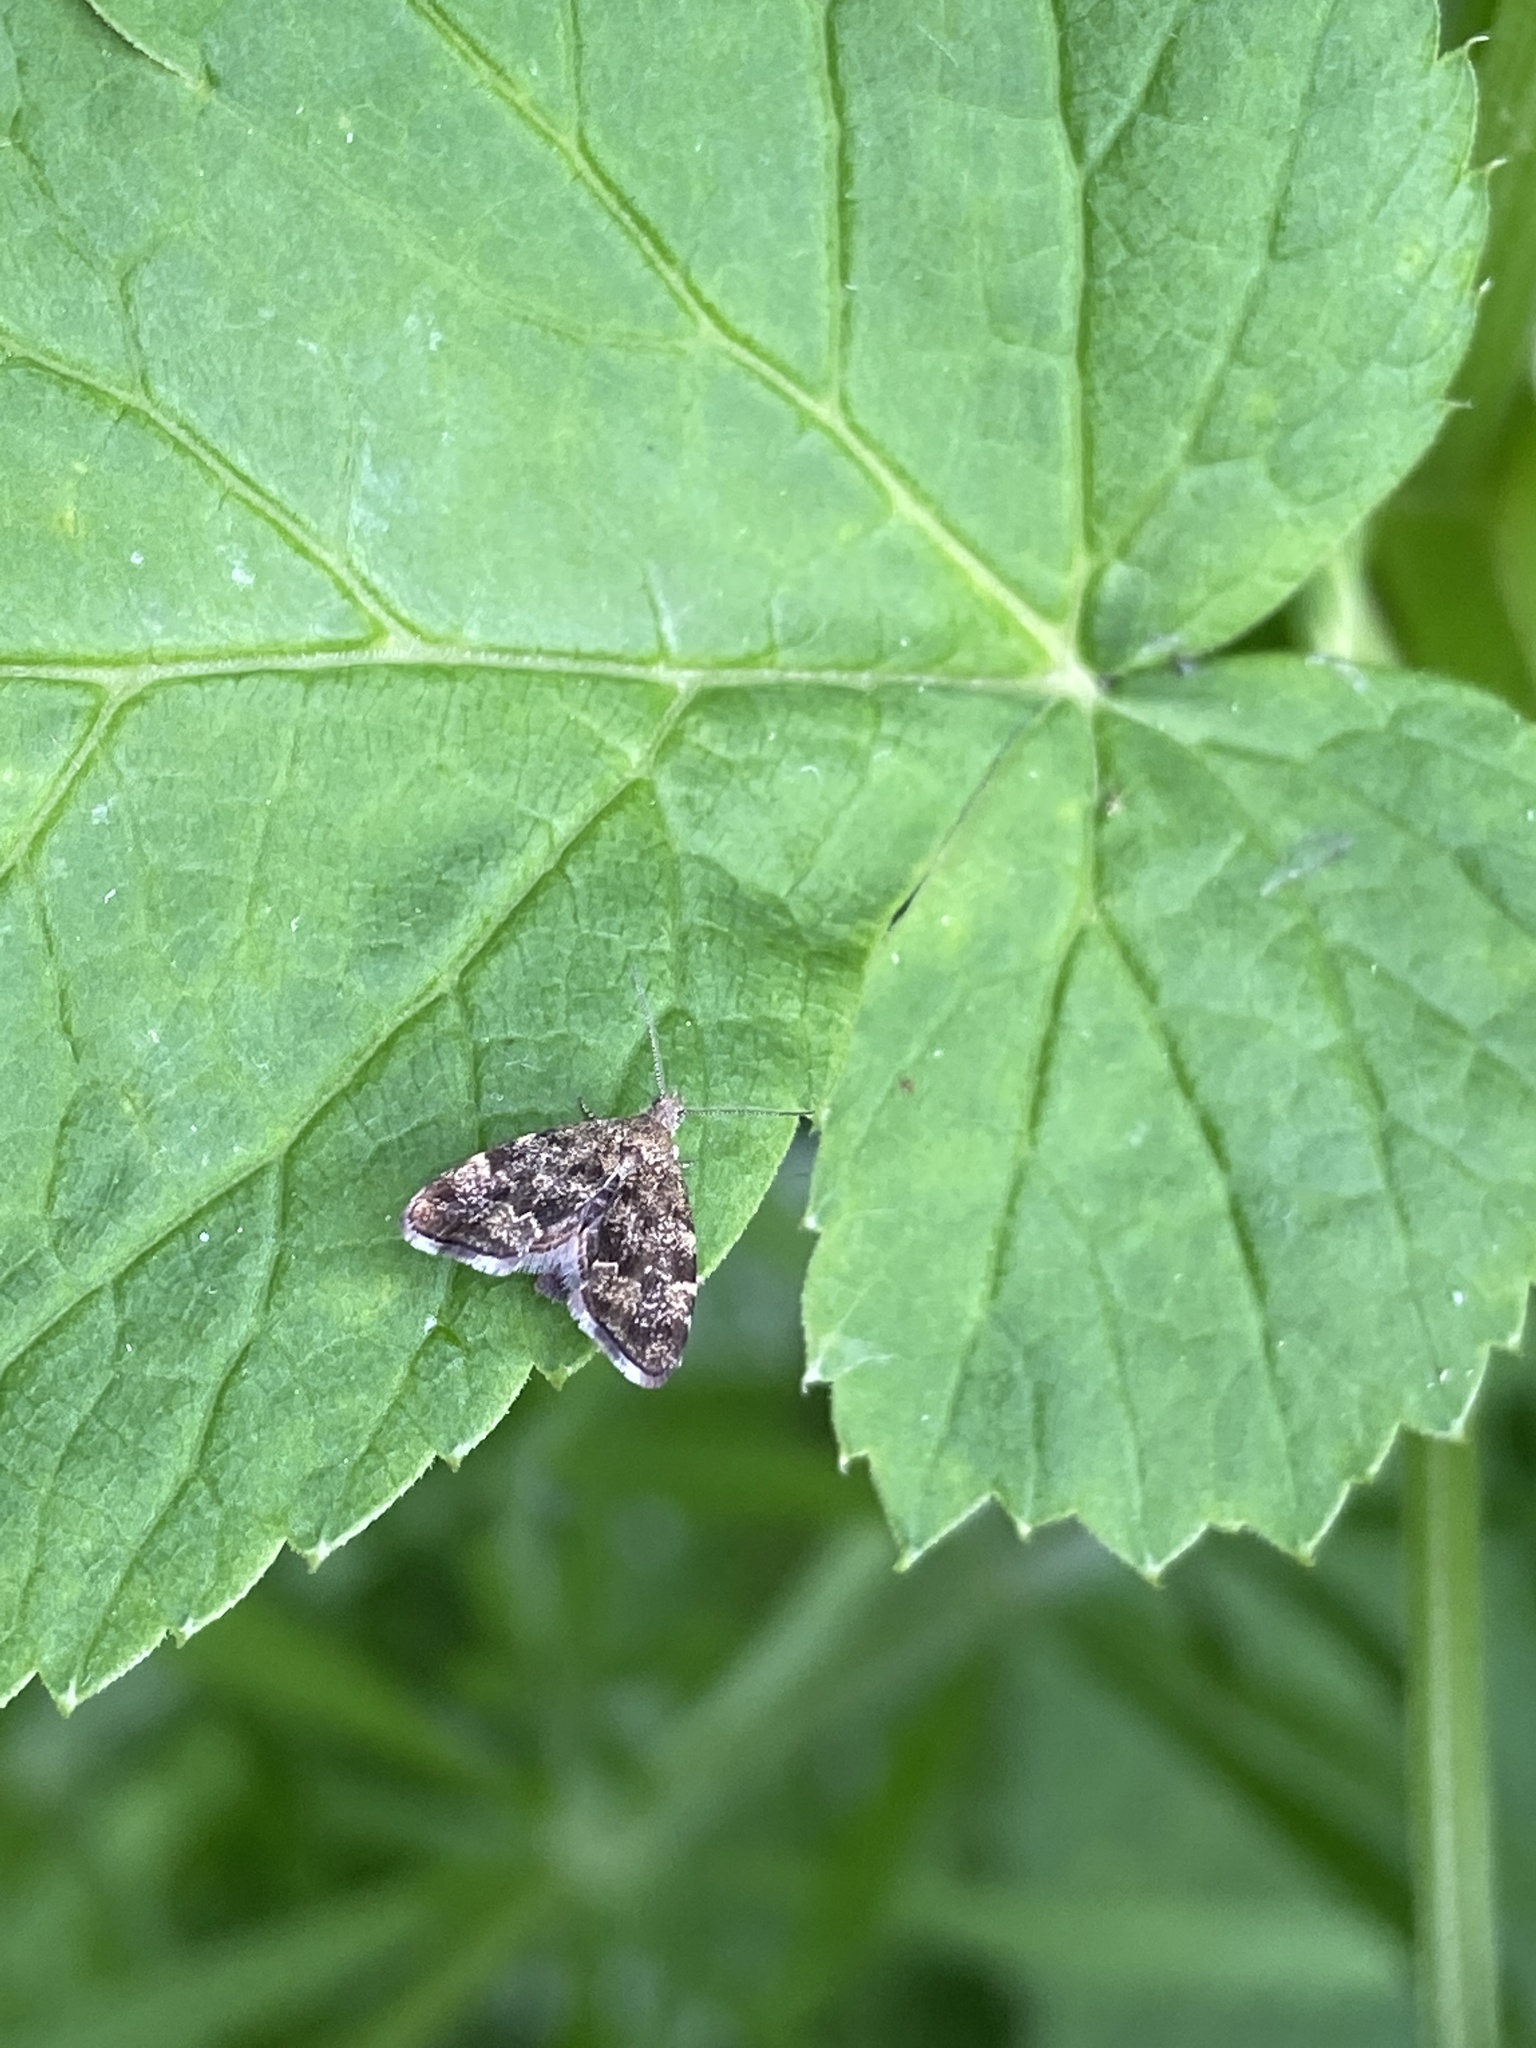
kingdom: Animalia
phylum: Arthropoda
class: Insecta
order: Lepidoptera
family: Choreutidae
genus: Anthophila
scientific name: Anthophila fabriciana
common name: Nettle-tap
